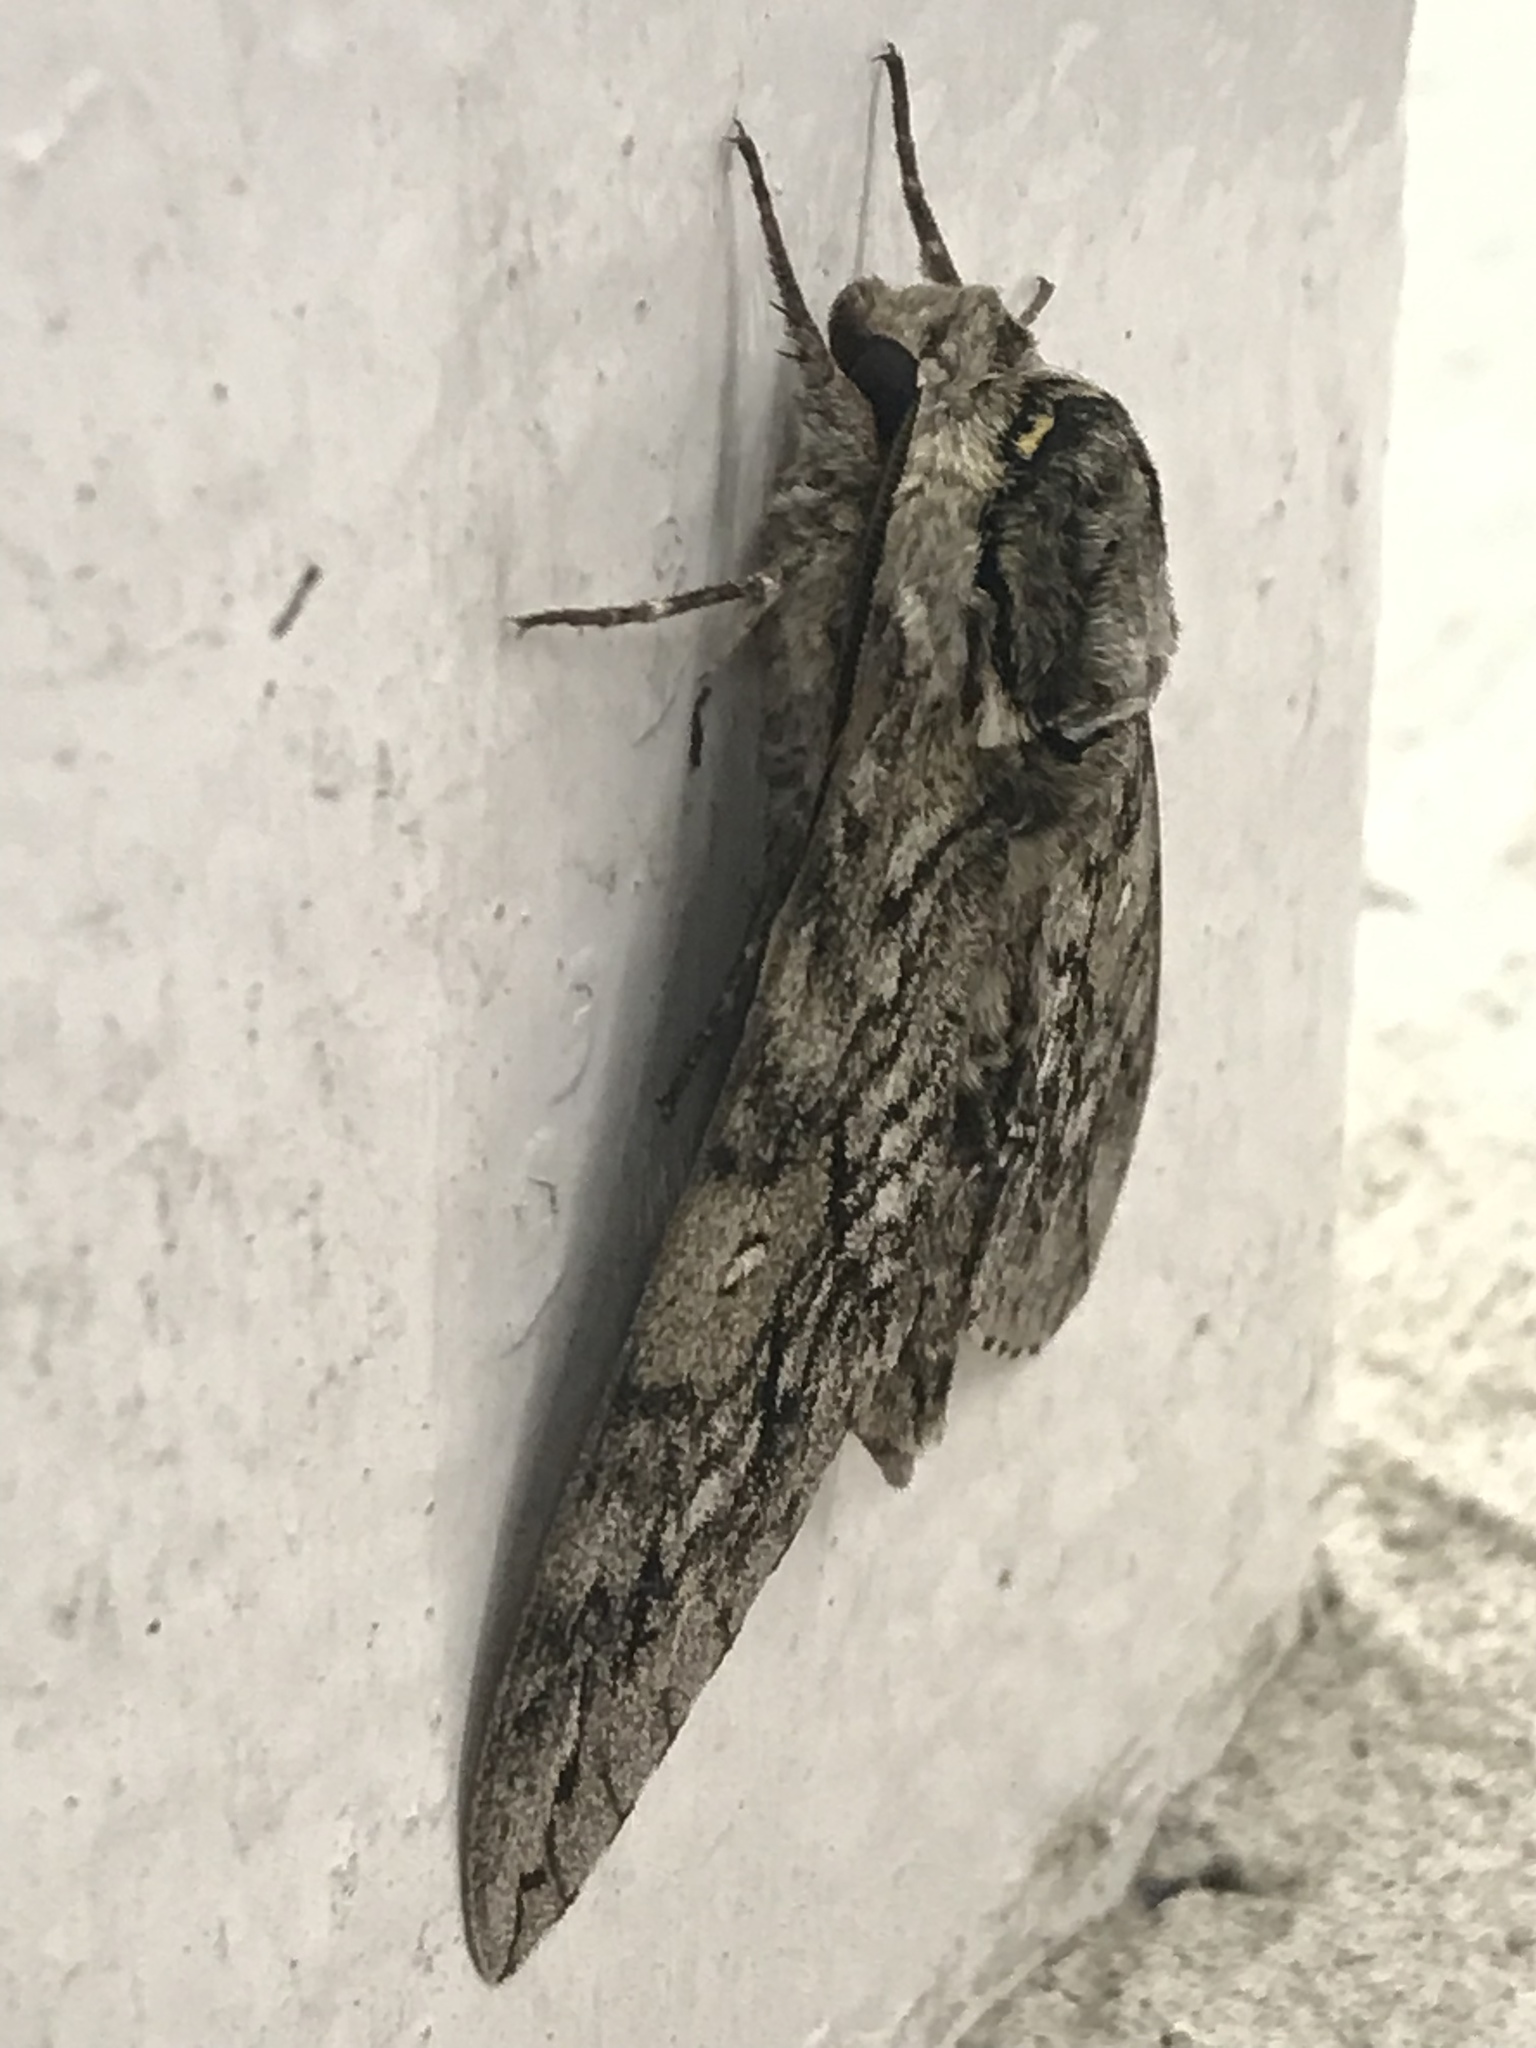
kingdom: Animalia
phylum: Arthropoda
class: Insecta
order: Lepidoptera
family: Sphingidae
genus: Ceratomia
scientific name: Ceratomia undulosa
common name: Waved sphinx
